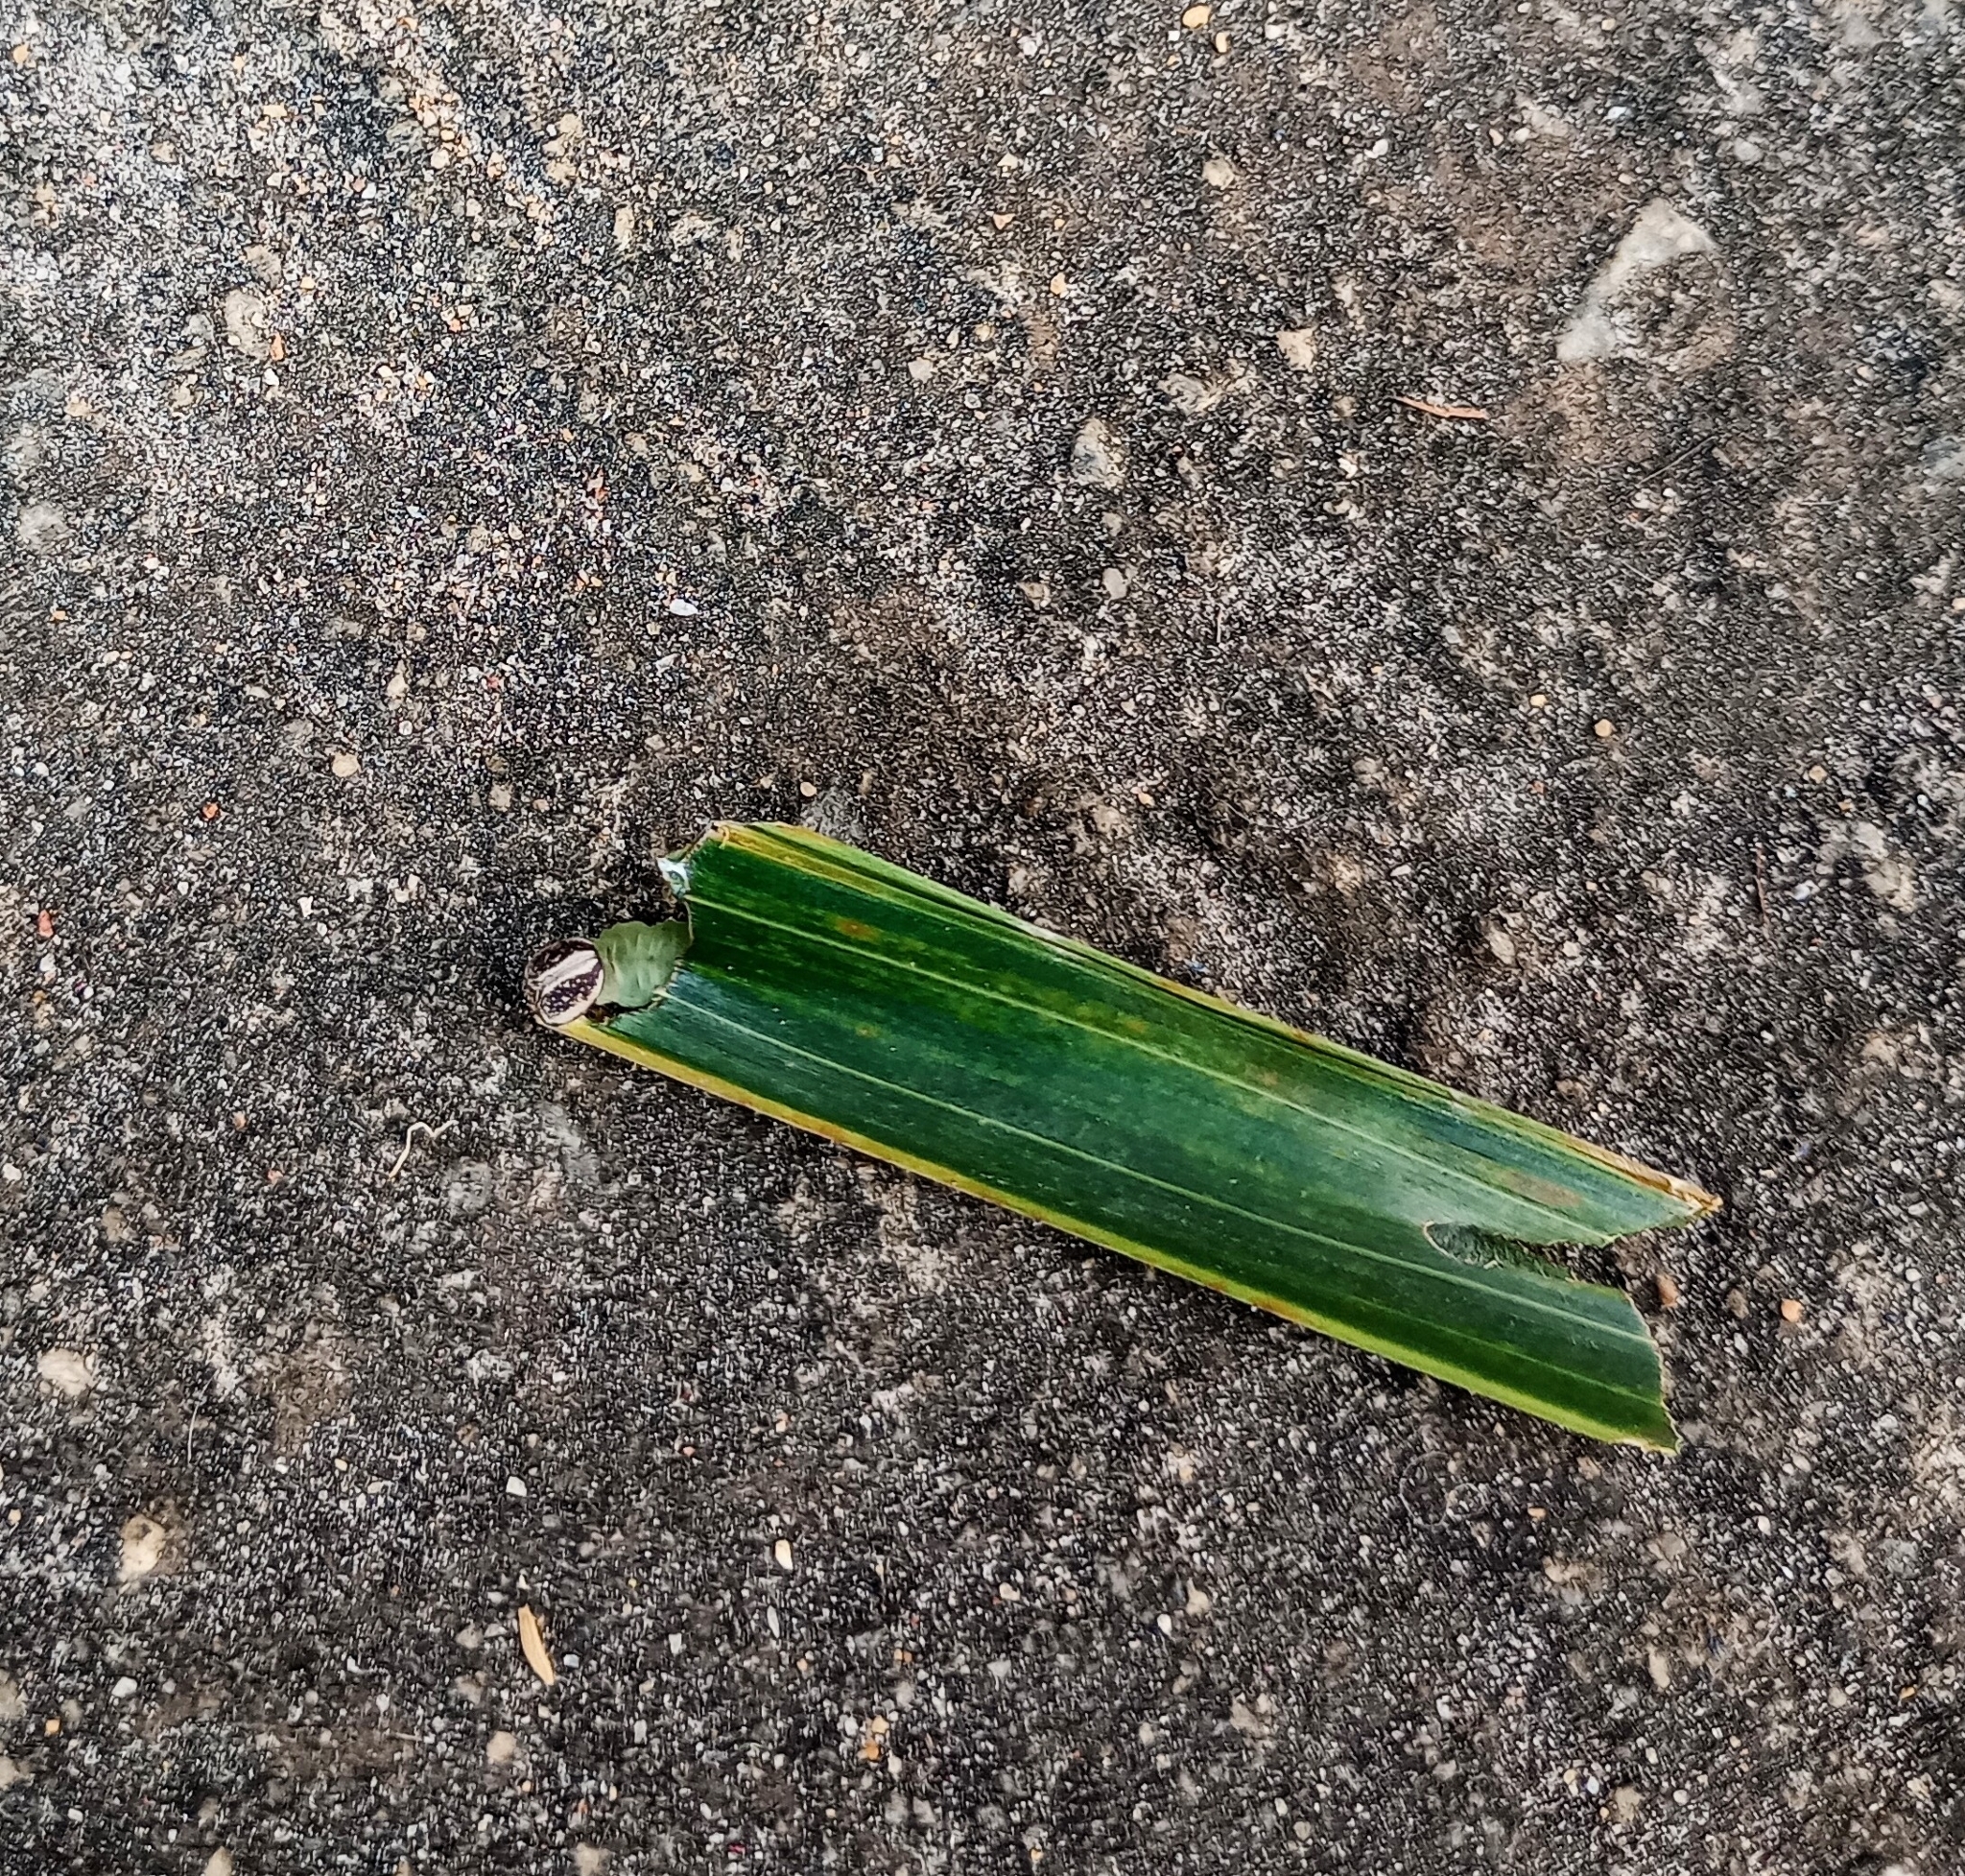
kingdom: Animalia
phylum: Arthropoda
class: Insecta
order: Lepidoptera
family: Hesperiidae
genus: Suastus
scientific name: Suastus gremius
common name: Indian palm bob
